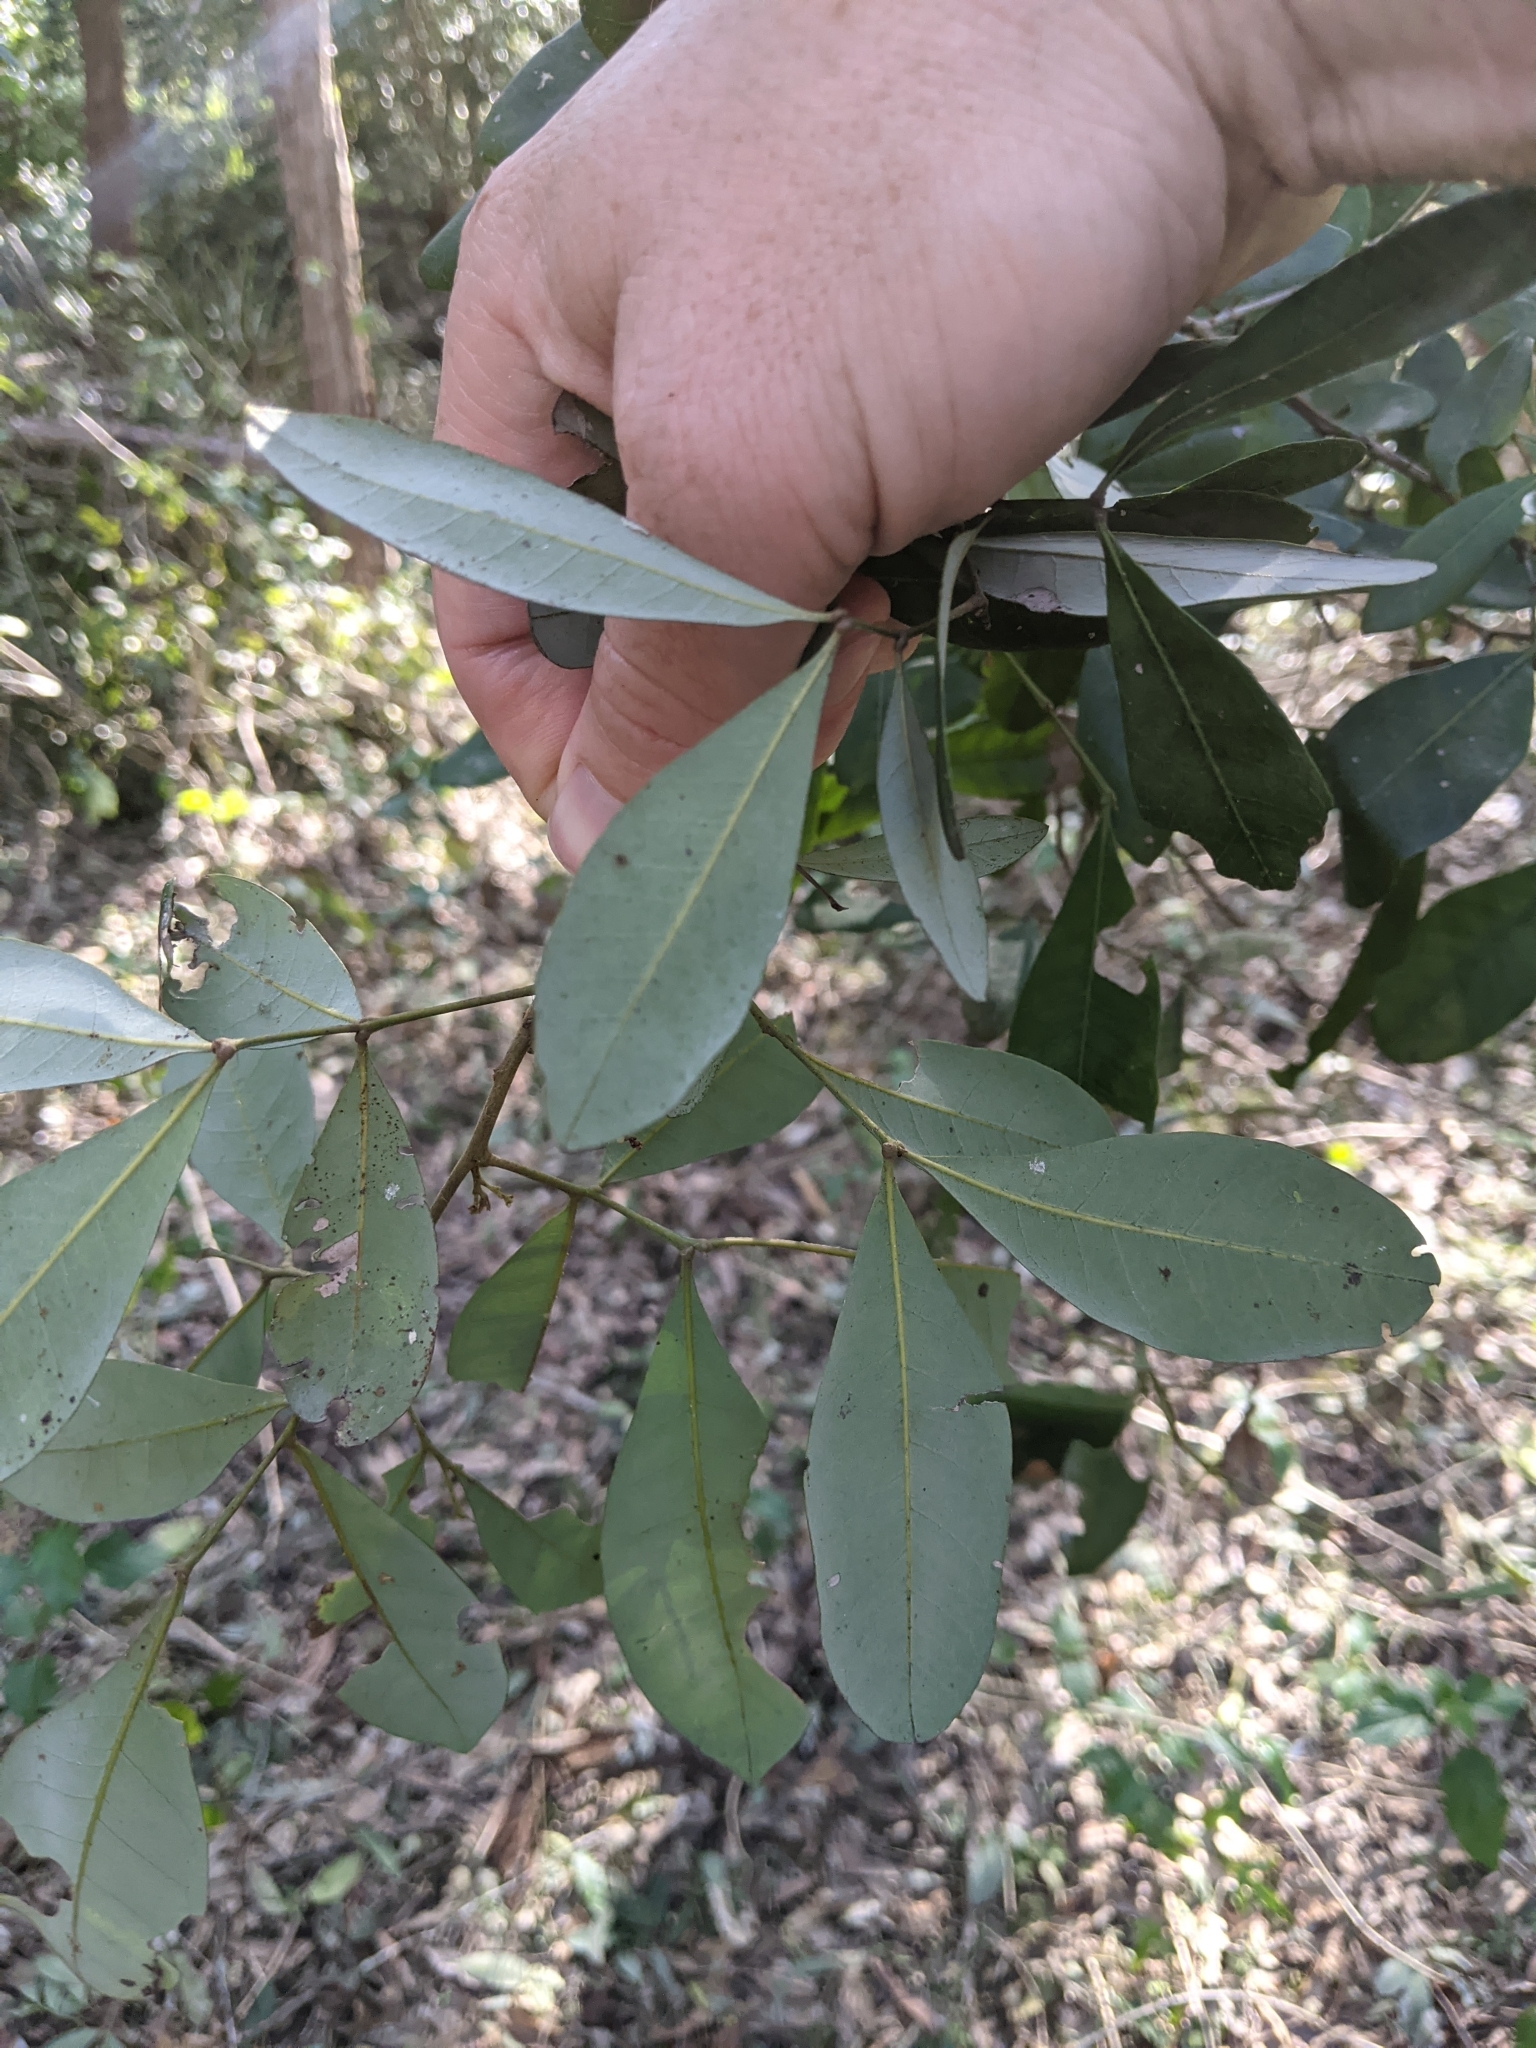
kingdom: Plantae
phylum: Tracheophyta
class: Magnoliopsida
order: Sapindales
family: Sapindaceae
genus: Guioa
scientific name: Guioa semiglauca
